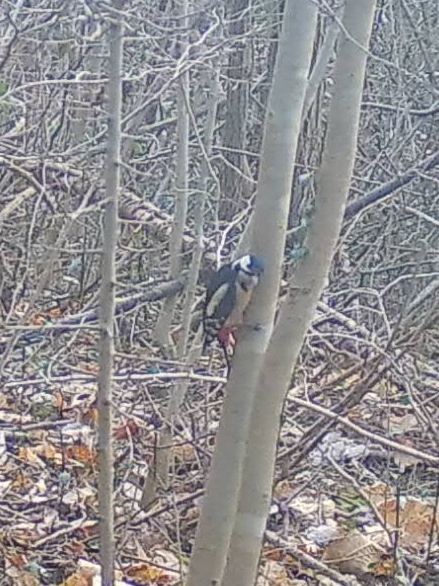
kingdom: Animalia
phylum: Chordata
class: Aves
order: Piciformes
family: Picidae
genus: Dendrocopos
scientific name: Dendrocopos major
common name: Great spotted woodpecker
